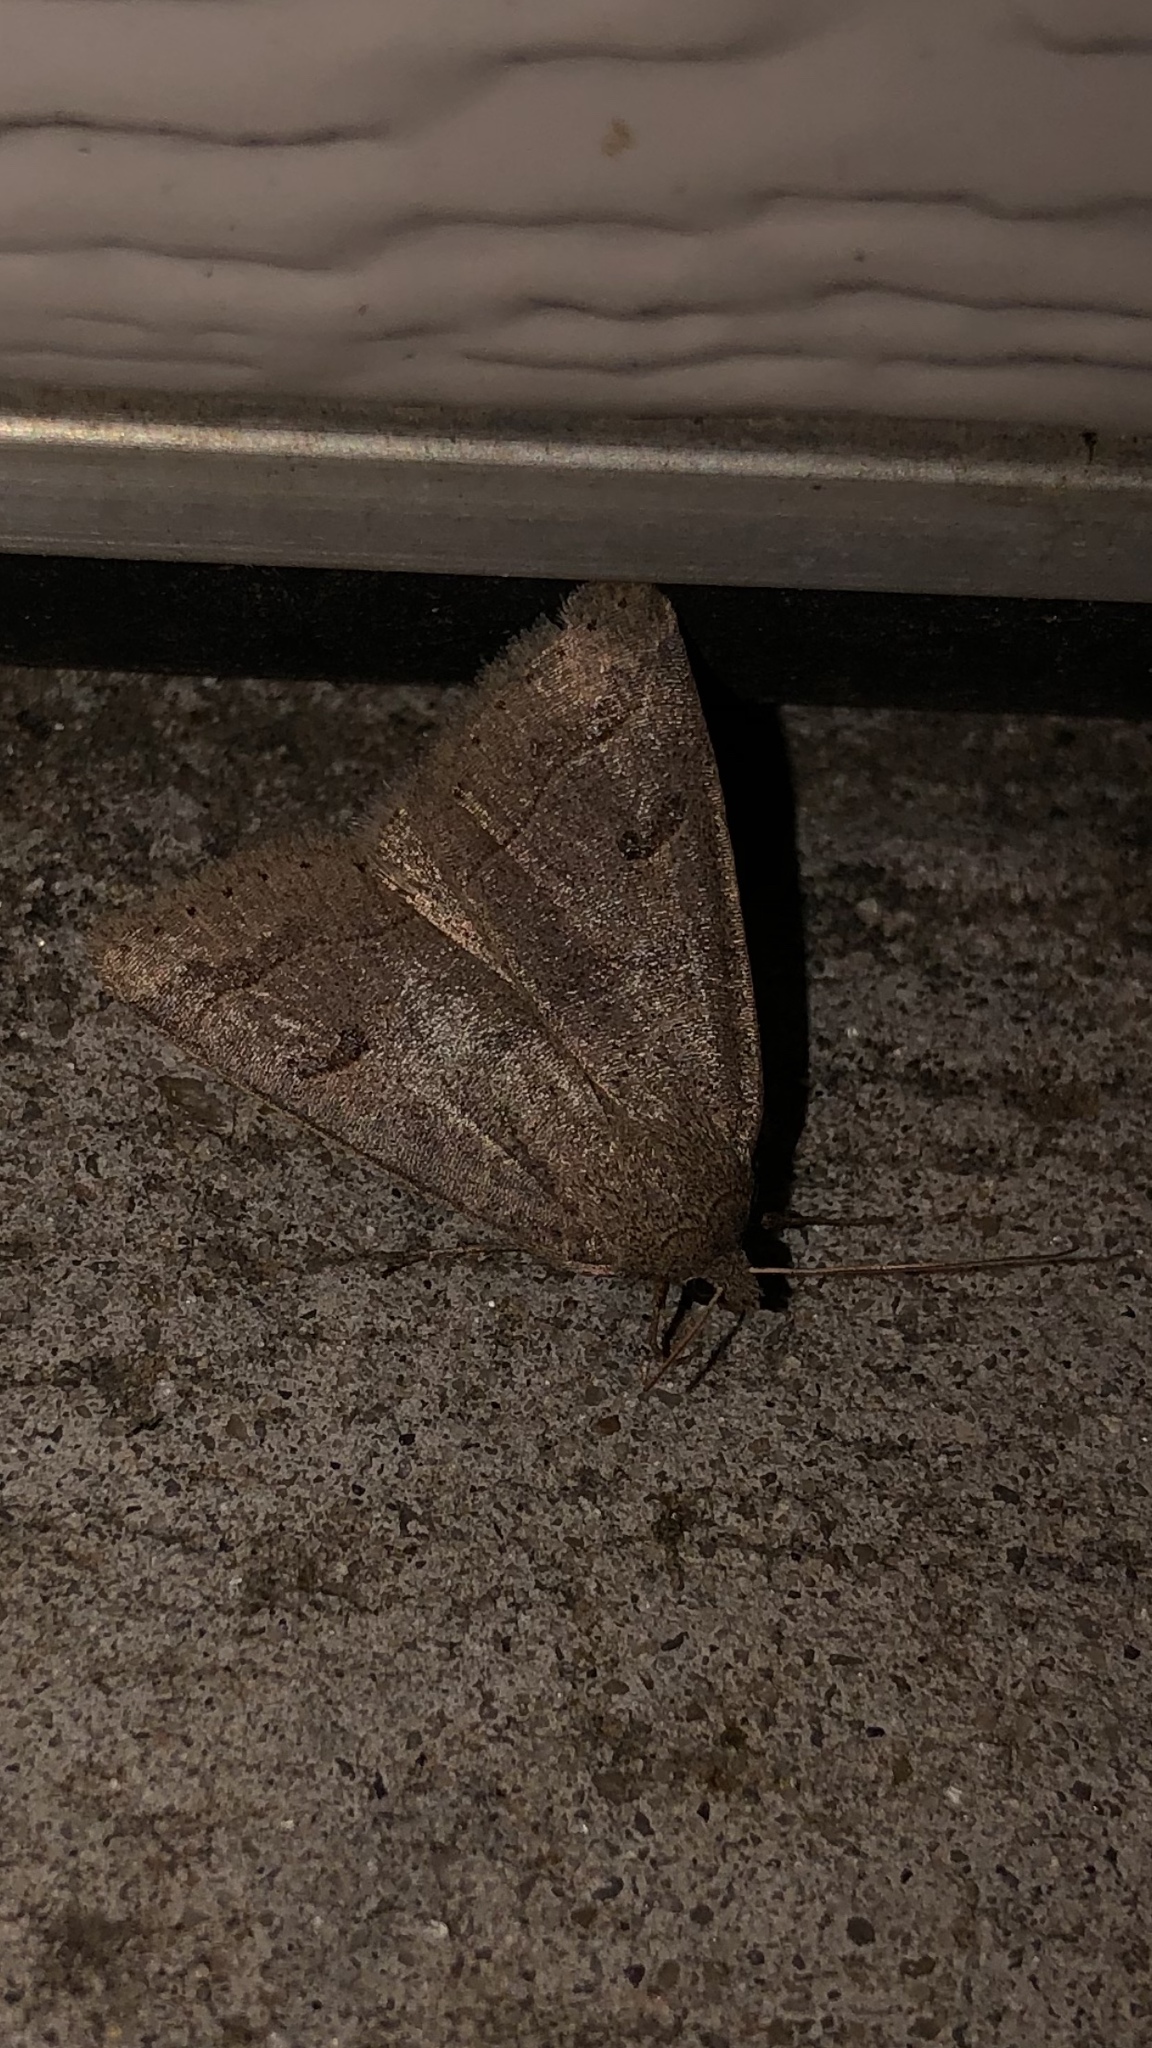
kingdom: Animalia
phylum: Arthropoda
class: Insecta
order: Lepidoptera
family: Erebidae
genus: Phoberia
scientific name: Phoberia atomaris
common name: Common oak moth
